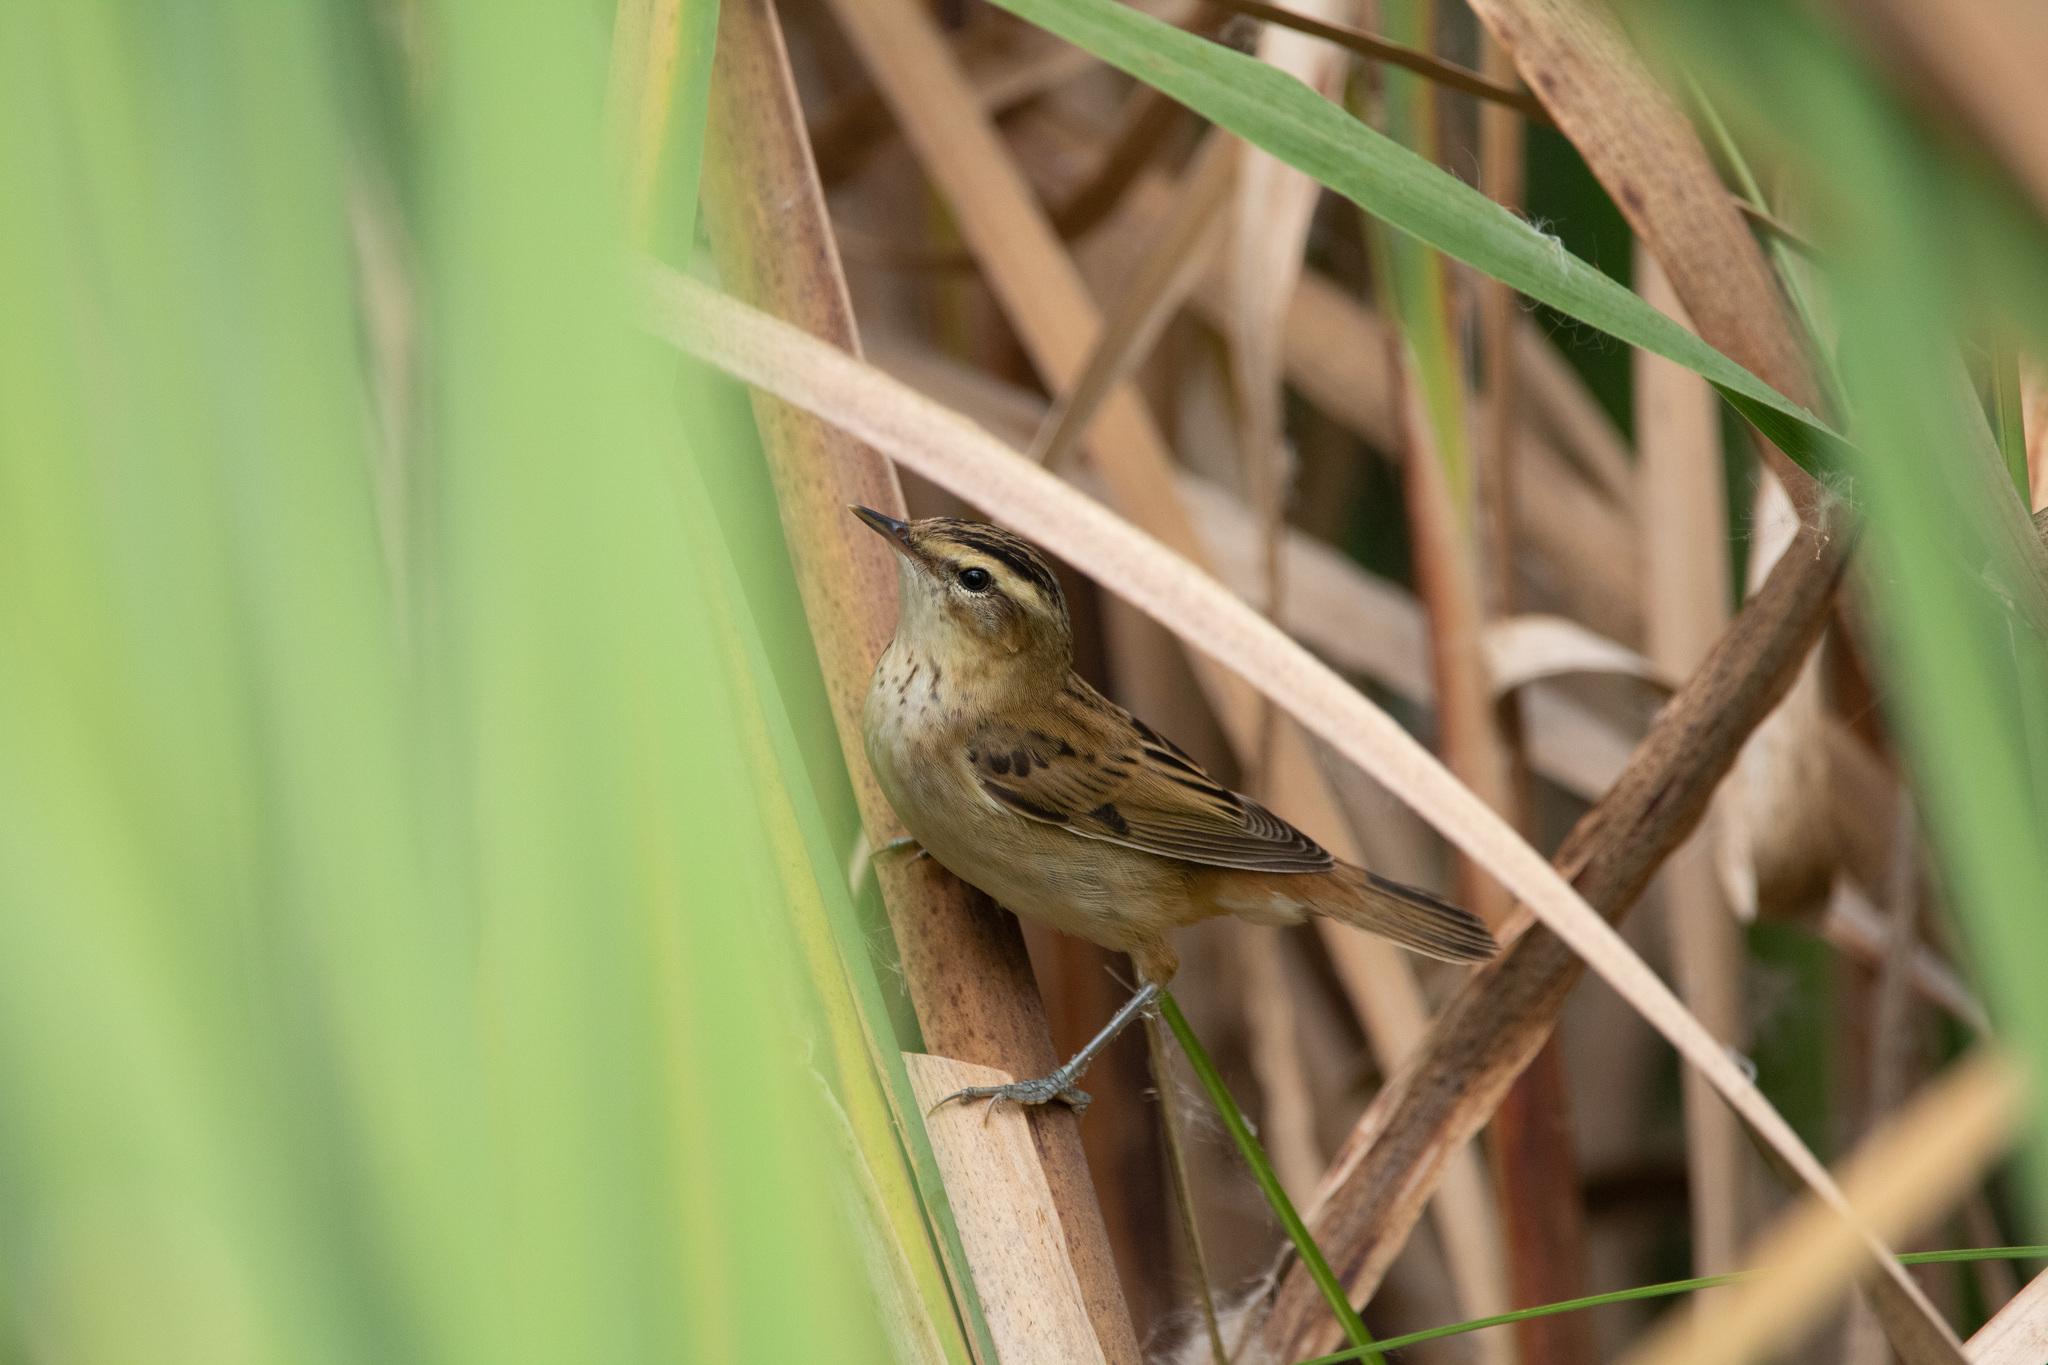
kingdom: Animalia
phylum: Chordata
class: Aves
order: Passeriformes
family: Acrocephalidae
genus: Acrocephalus
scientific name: Acrocephalus schoenobaenus
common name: Sedge warbler
